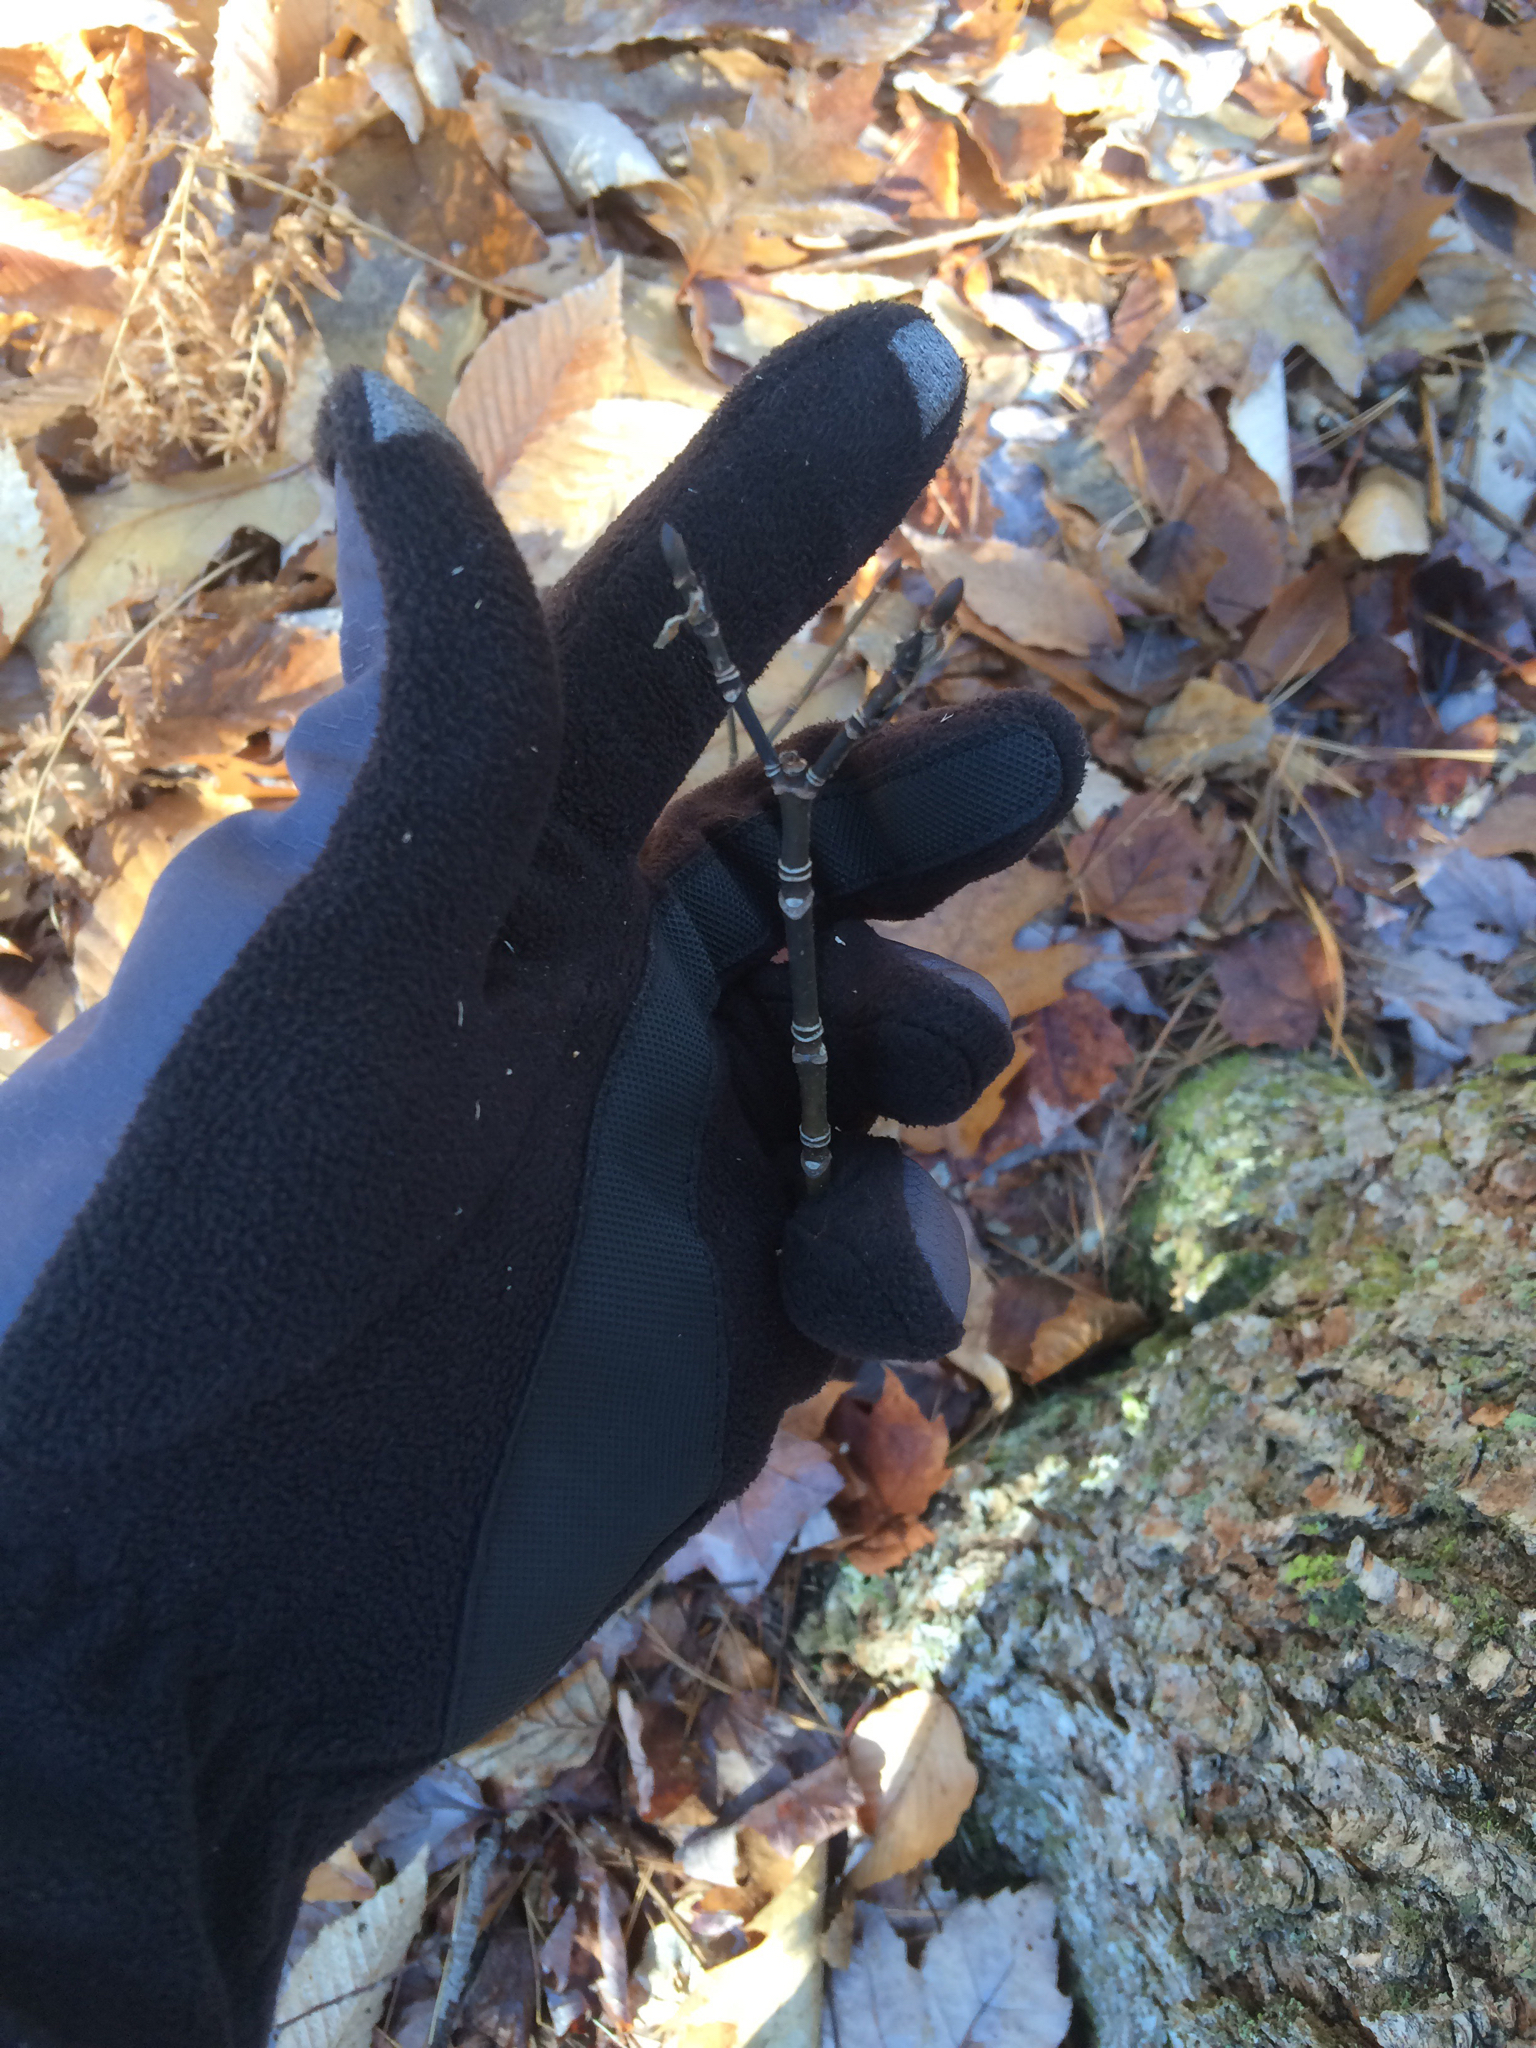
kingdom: Plantae
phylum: Tracheophyta
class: Magnoliopsida
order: Sapindales
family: Sapindaceae
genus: Acer
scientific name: Acer pensylvanicum
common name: Moosewood
